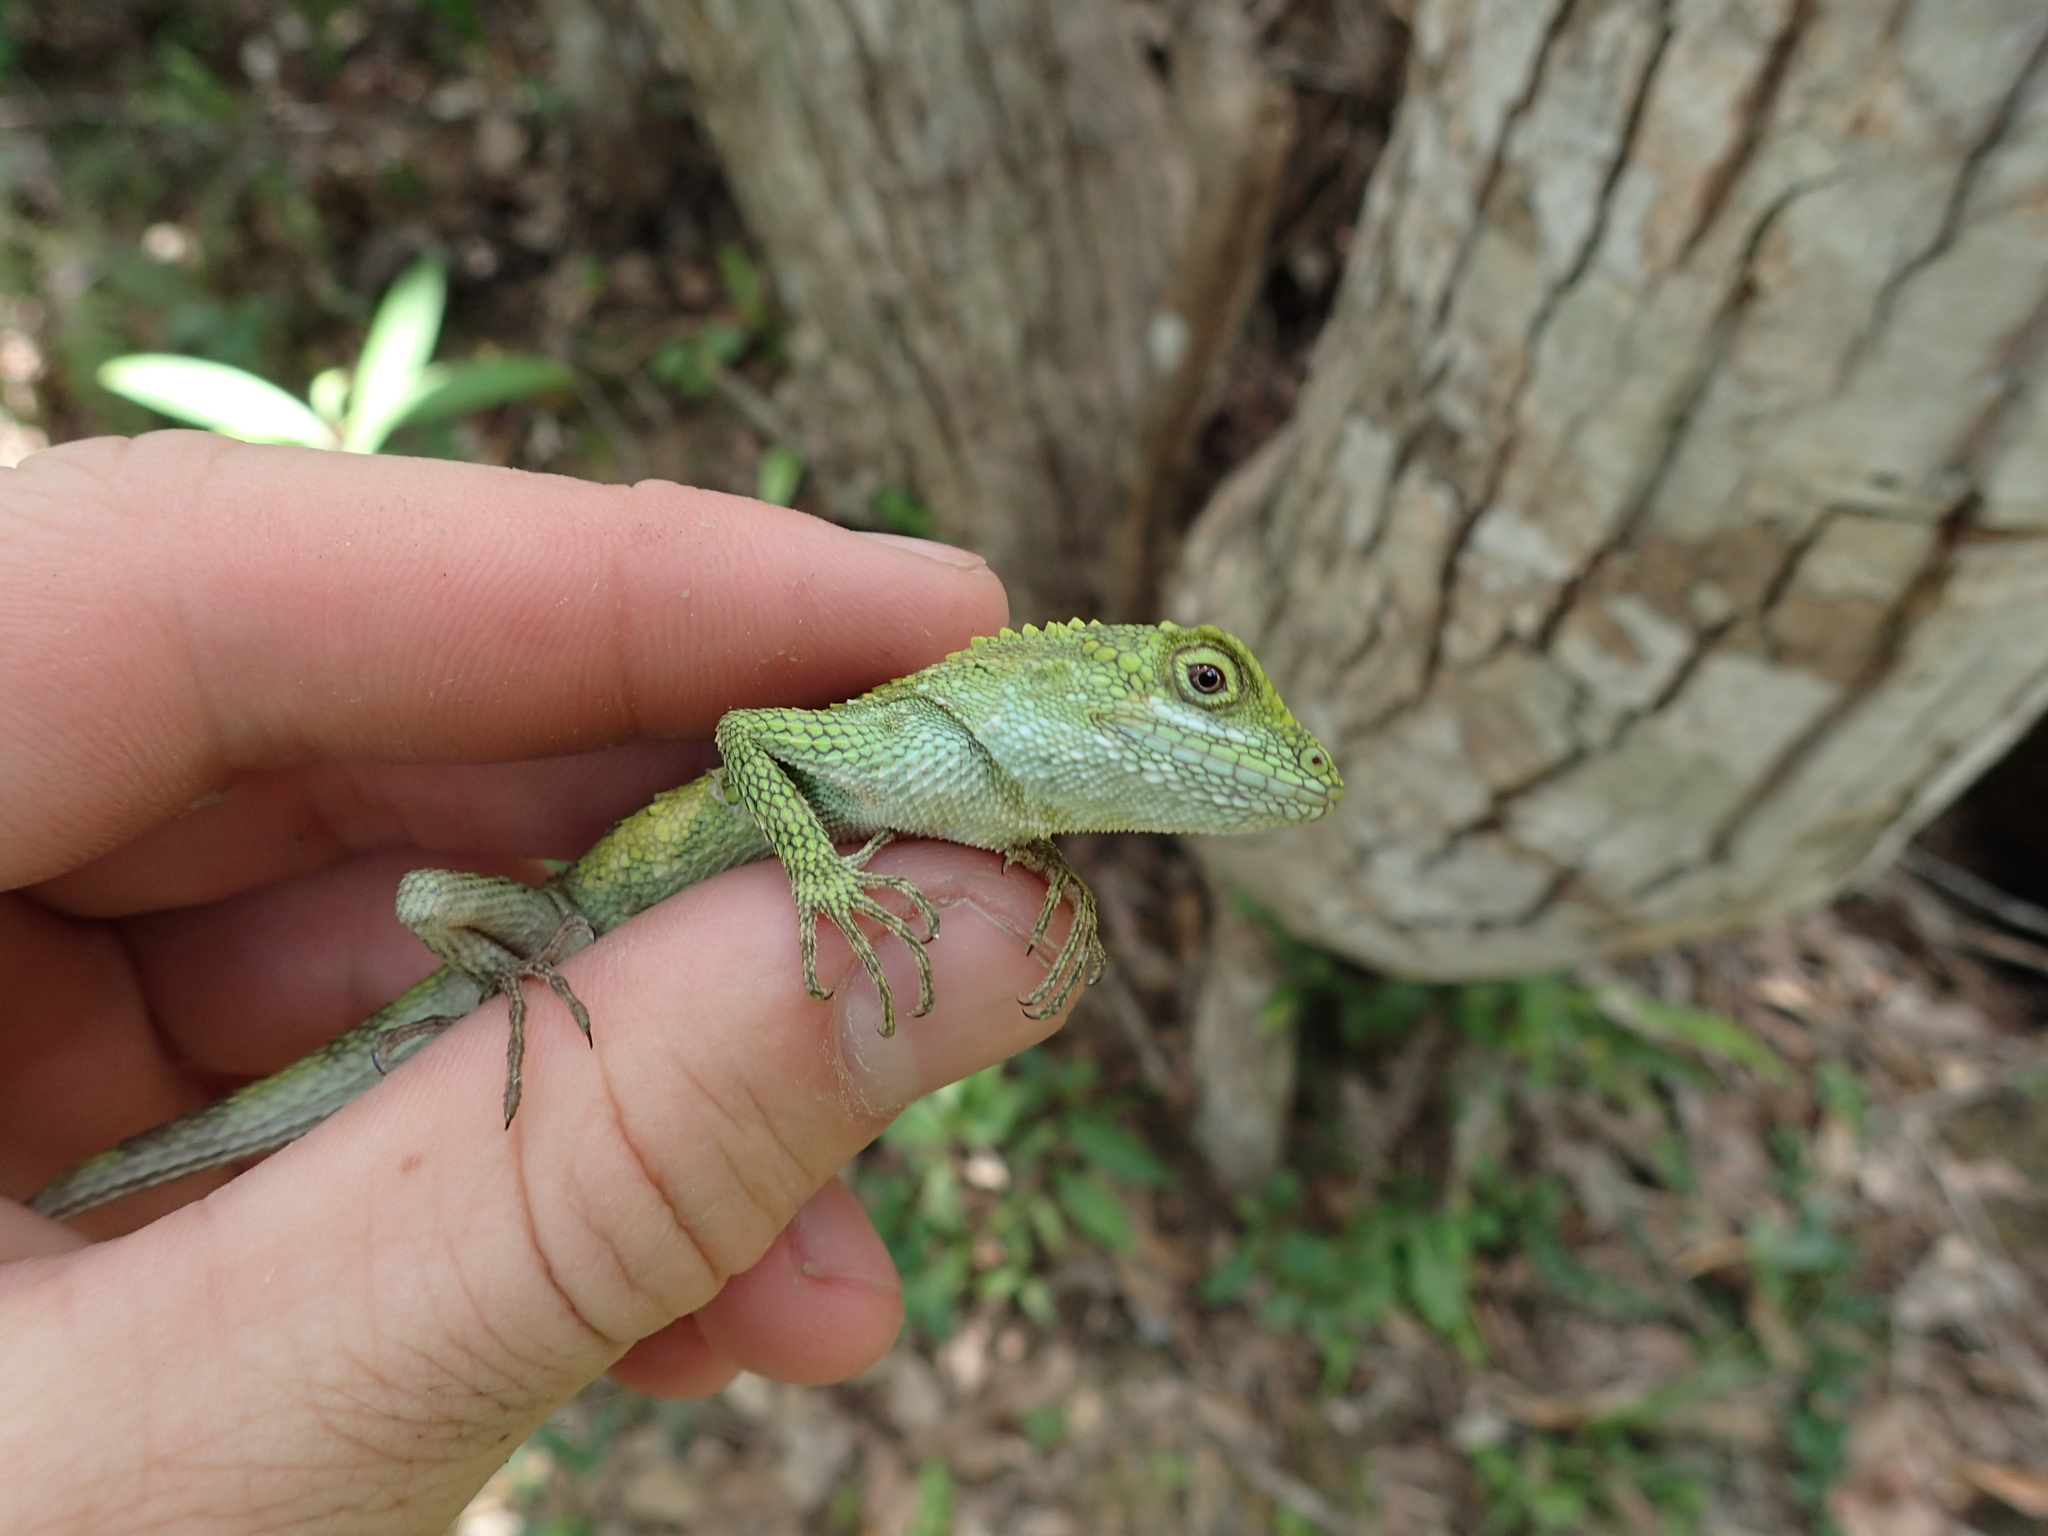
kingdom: Fungi
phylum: Basidiomycota
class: Agaricomycetes
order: Boletales
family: Diplocystidiaceae
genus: Diploderma
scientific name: Diploderma polygonatum
